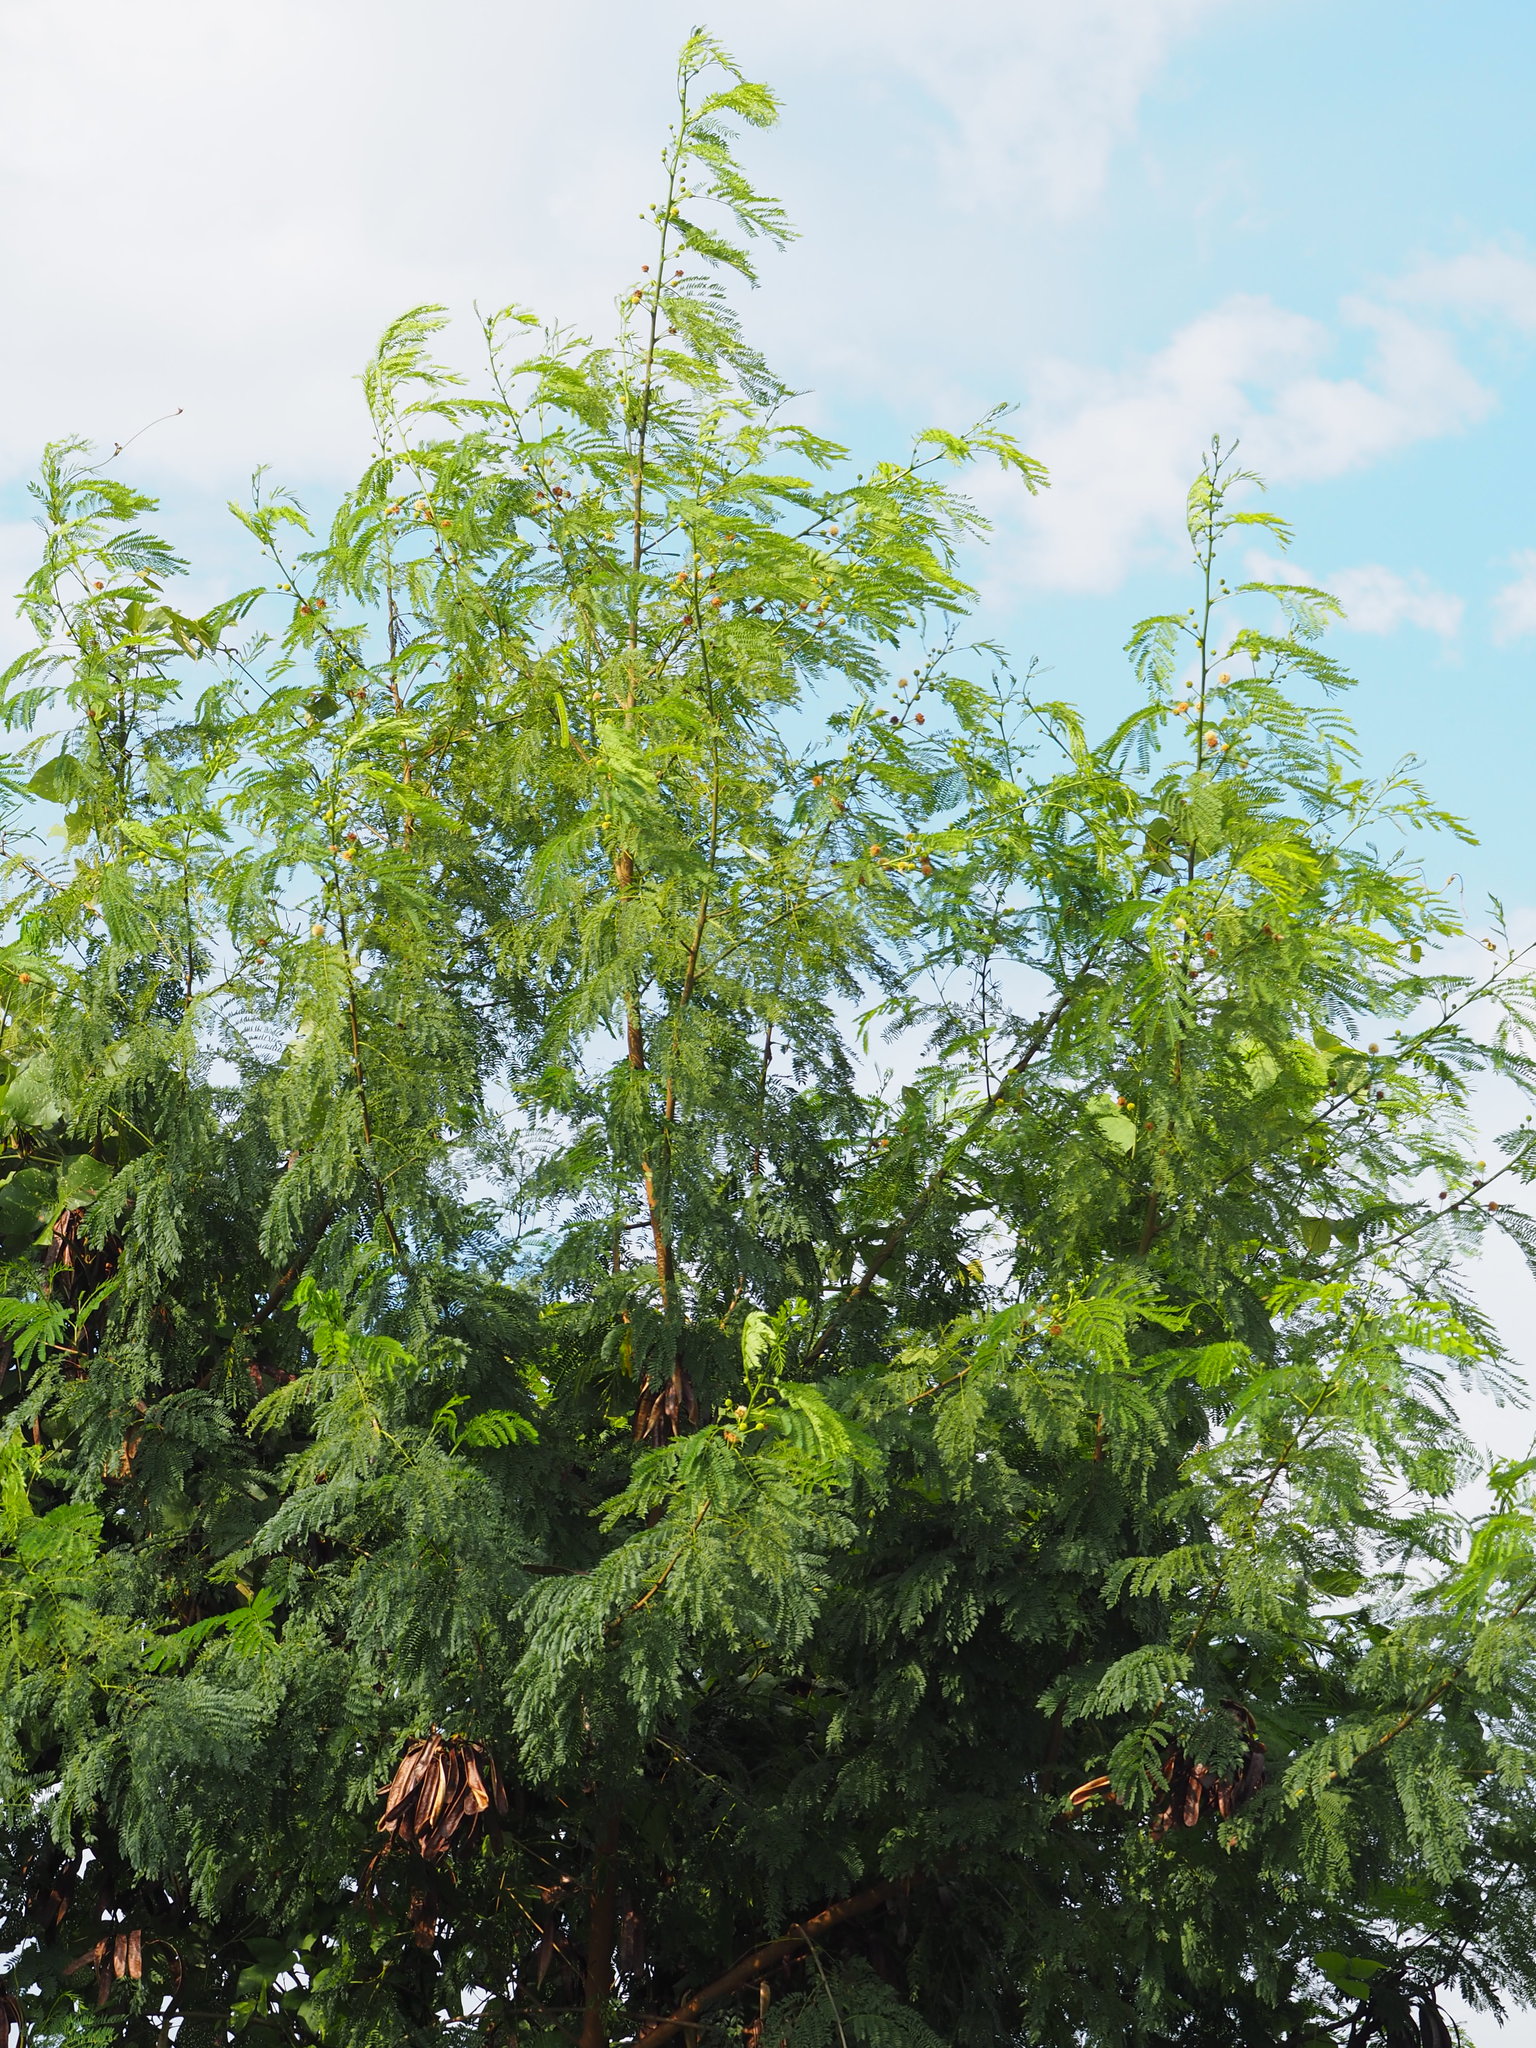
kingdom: Plantae
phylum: Tracheophyta
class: Magnoliopsida
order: Fabales
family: Fabaceae
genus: Leucaena
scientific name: Leucaena leucocephala
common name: White leadtree
